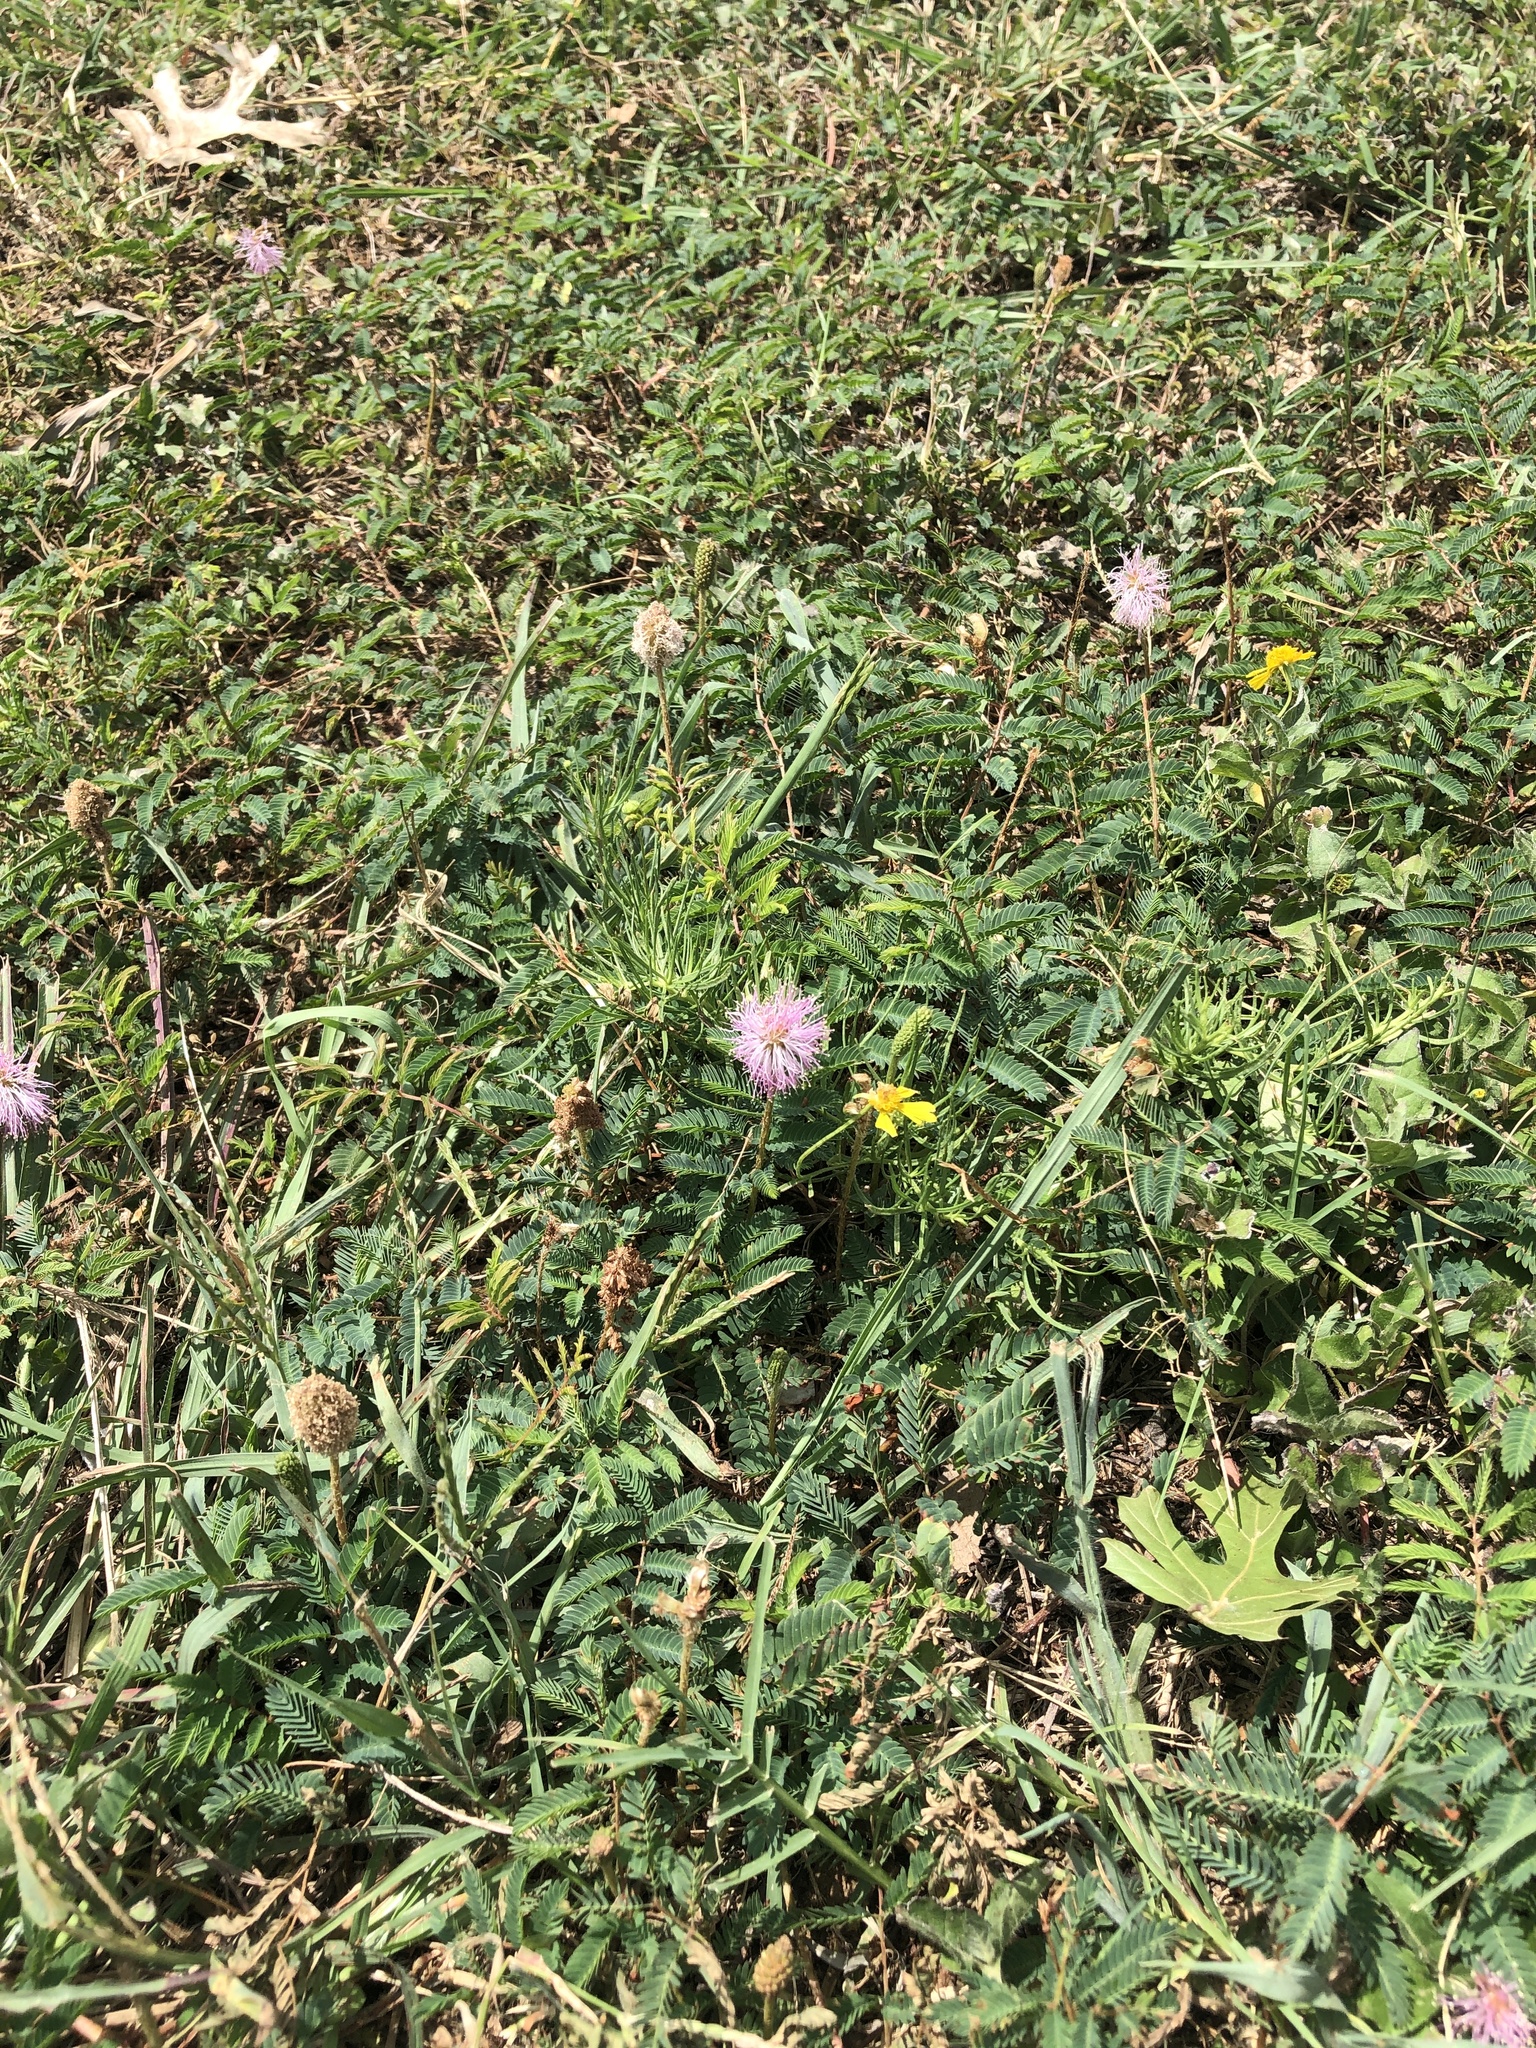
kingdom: Plantae
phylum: Tracheophyta
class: Magnoliopsida
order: Fabales
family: Fabaceae
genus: Mimosa
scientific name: Mimosa strigillosa
